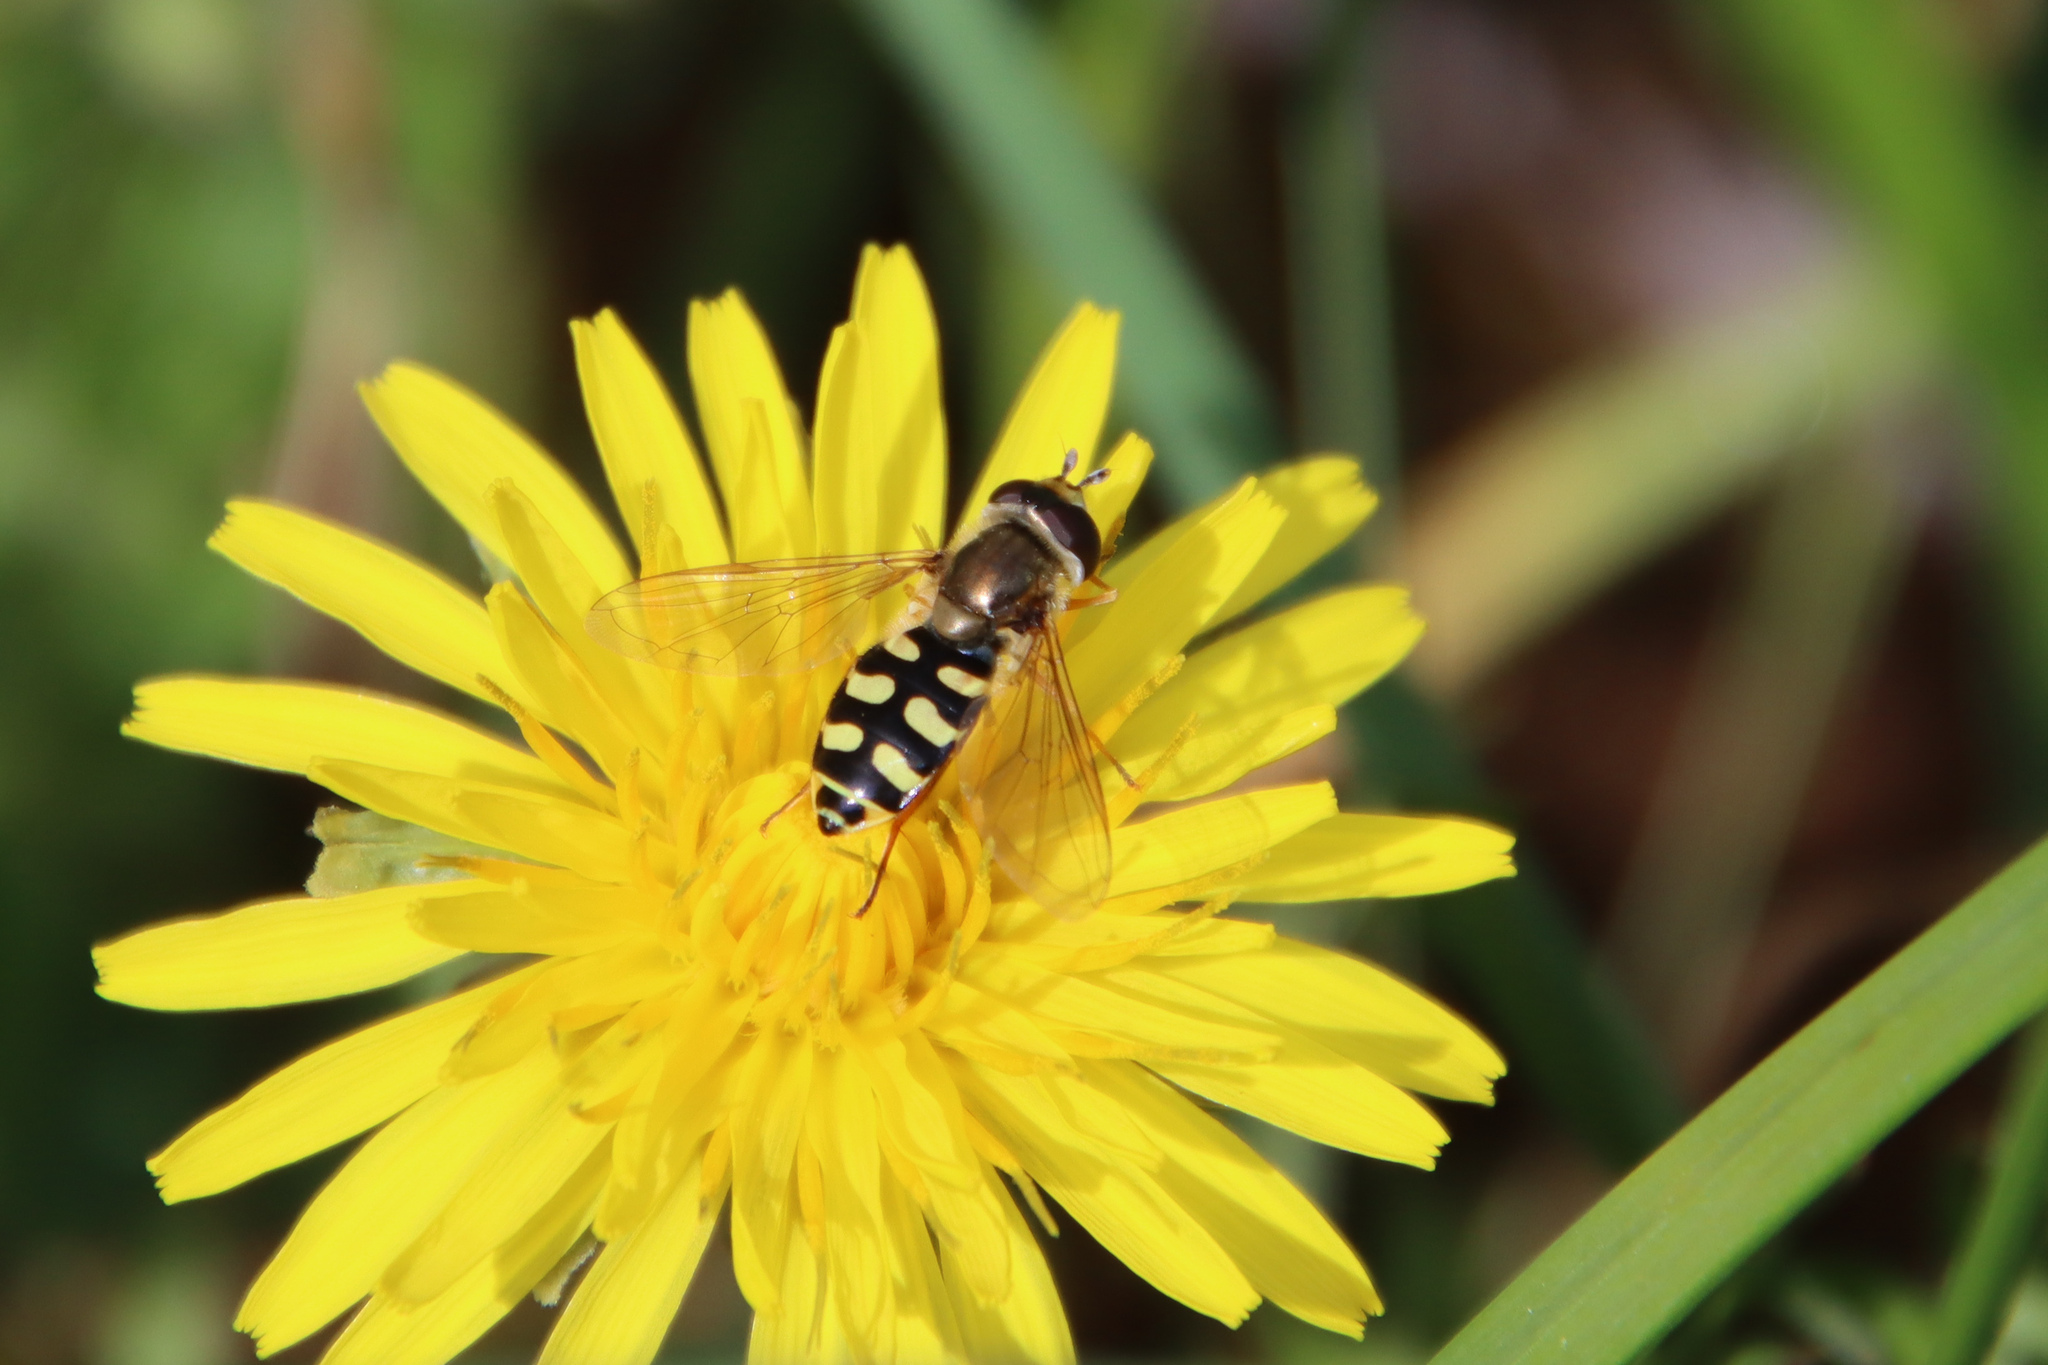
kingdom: Animalia
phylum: Arthropoda
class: Insecta
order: Diptera
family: Syrphidae
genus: Eupeodes
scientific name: Eupeodes corollae
